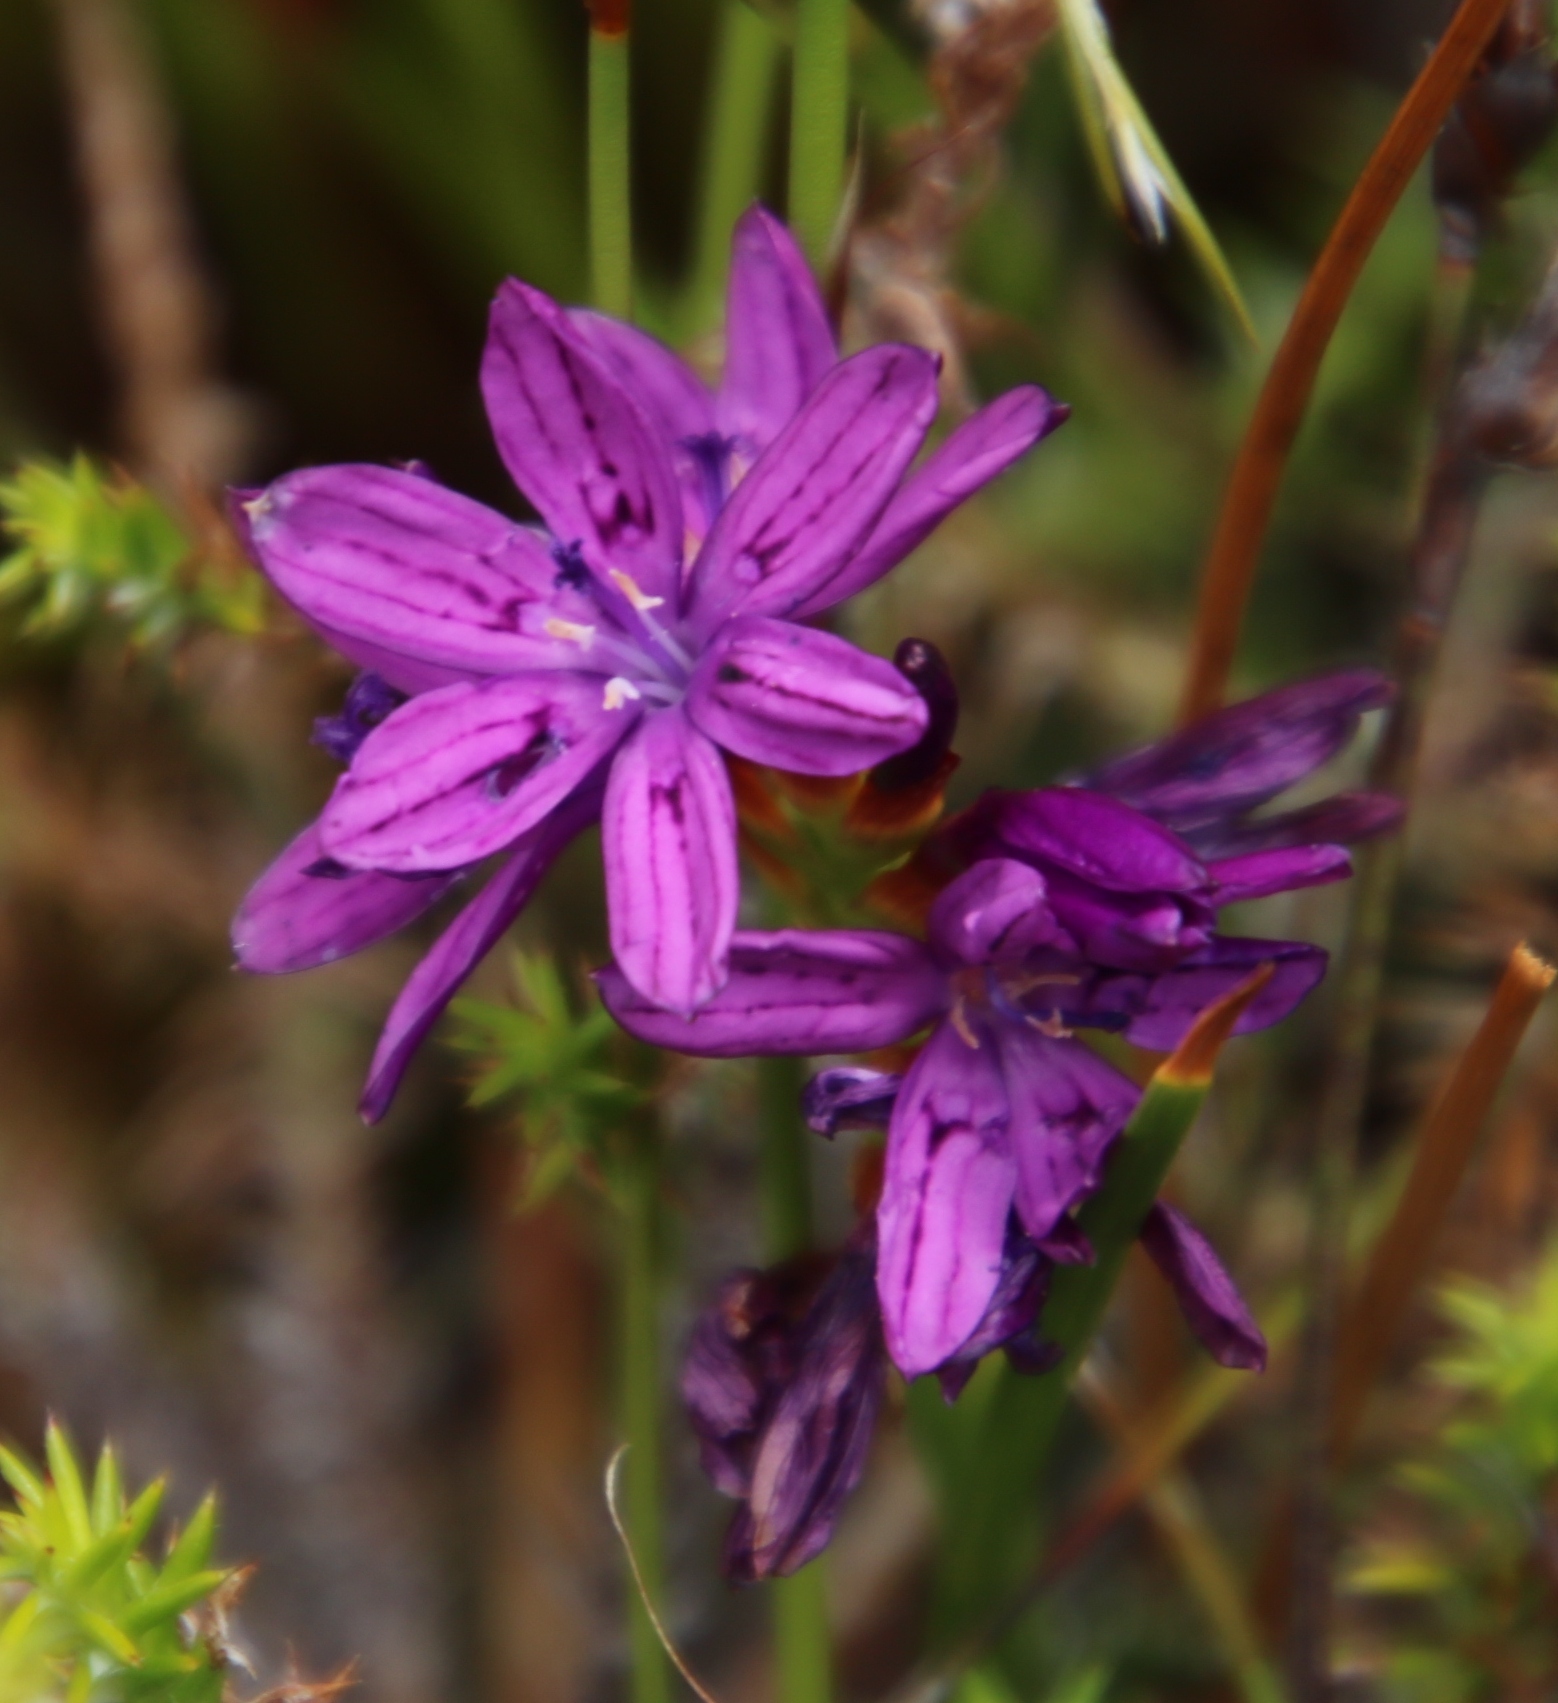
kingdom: Plantae
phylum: Tracheophyta
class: Liliopsida
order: Asparagales
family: Iridaceae
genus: Thereianthus
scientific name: Thereianthus bracteolatus
